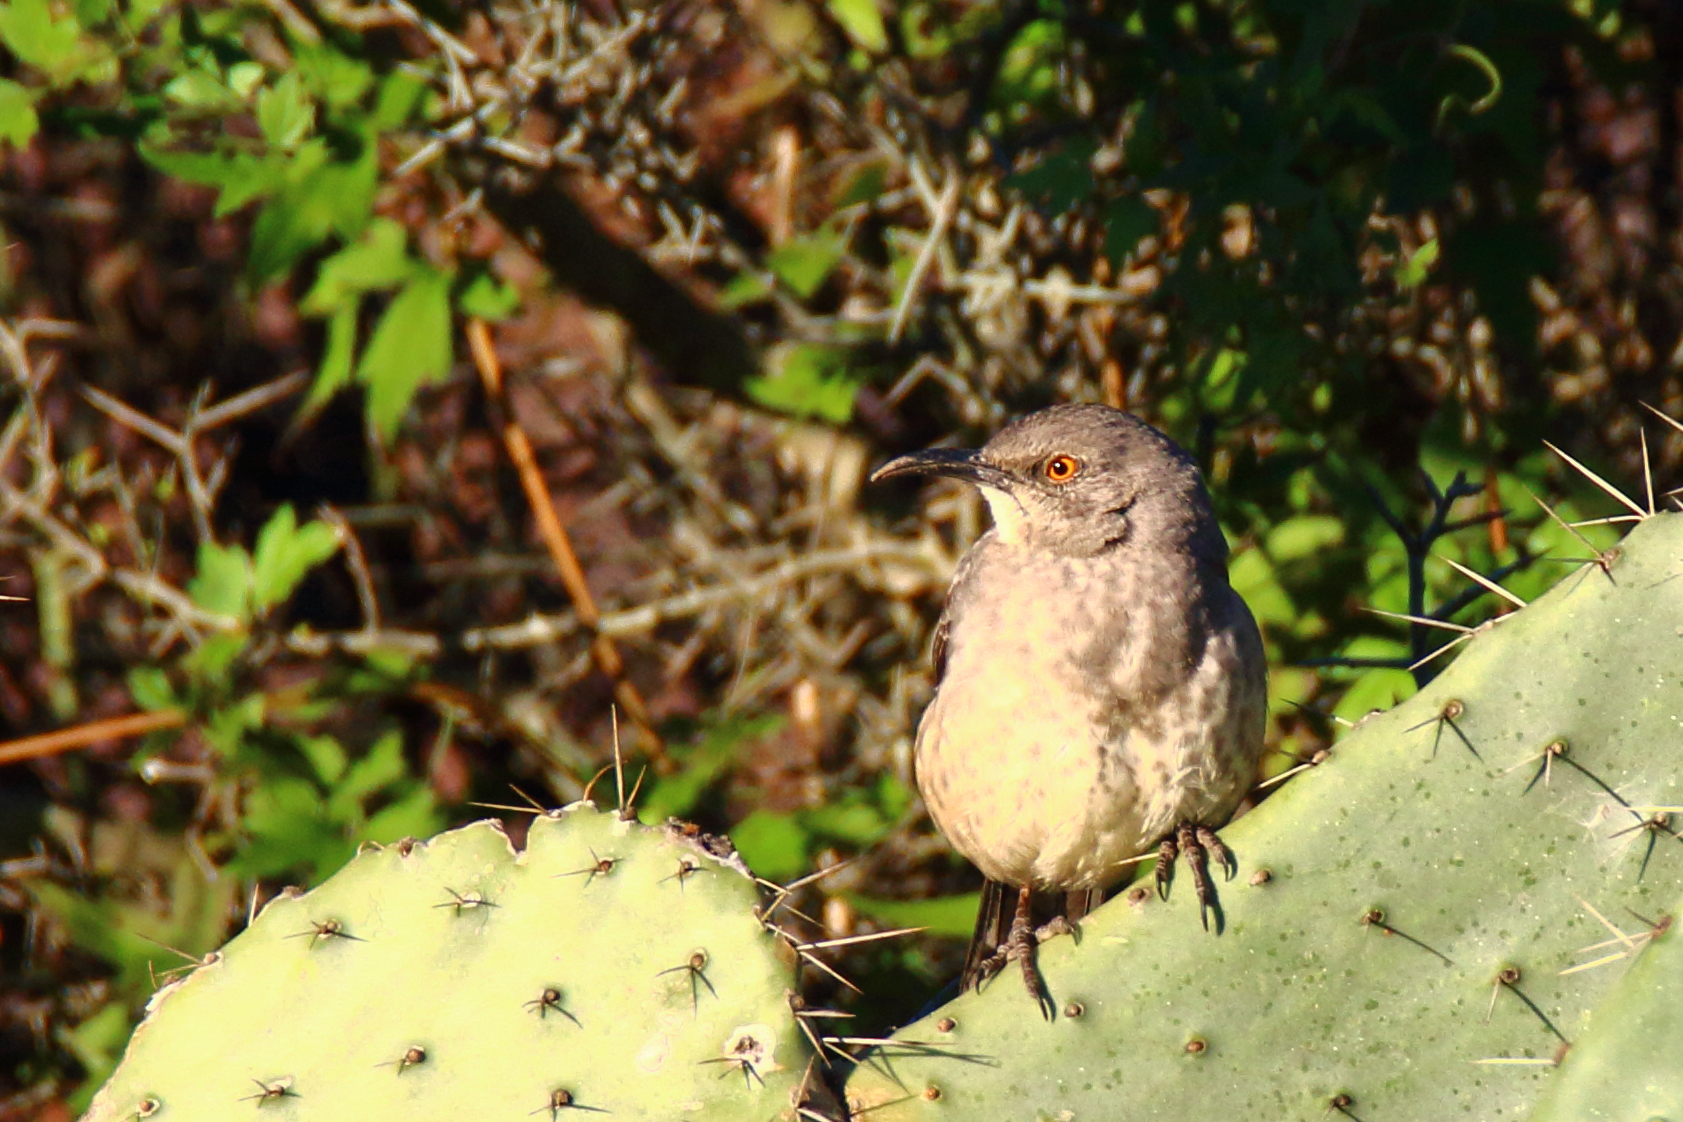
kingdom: Animalia
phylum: Chordata
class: Aves
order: Passeriformes
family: Mimidae
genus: Toxostoma
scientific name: Toxostoma curvirostre
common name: Curve-billed thrasher
